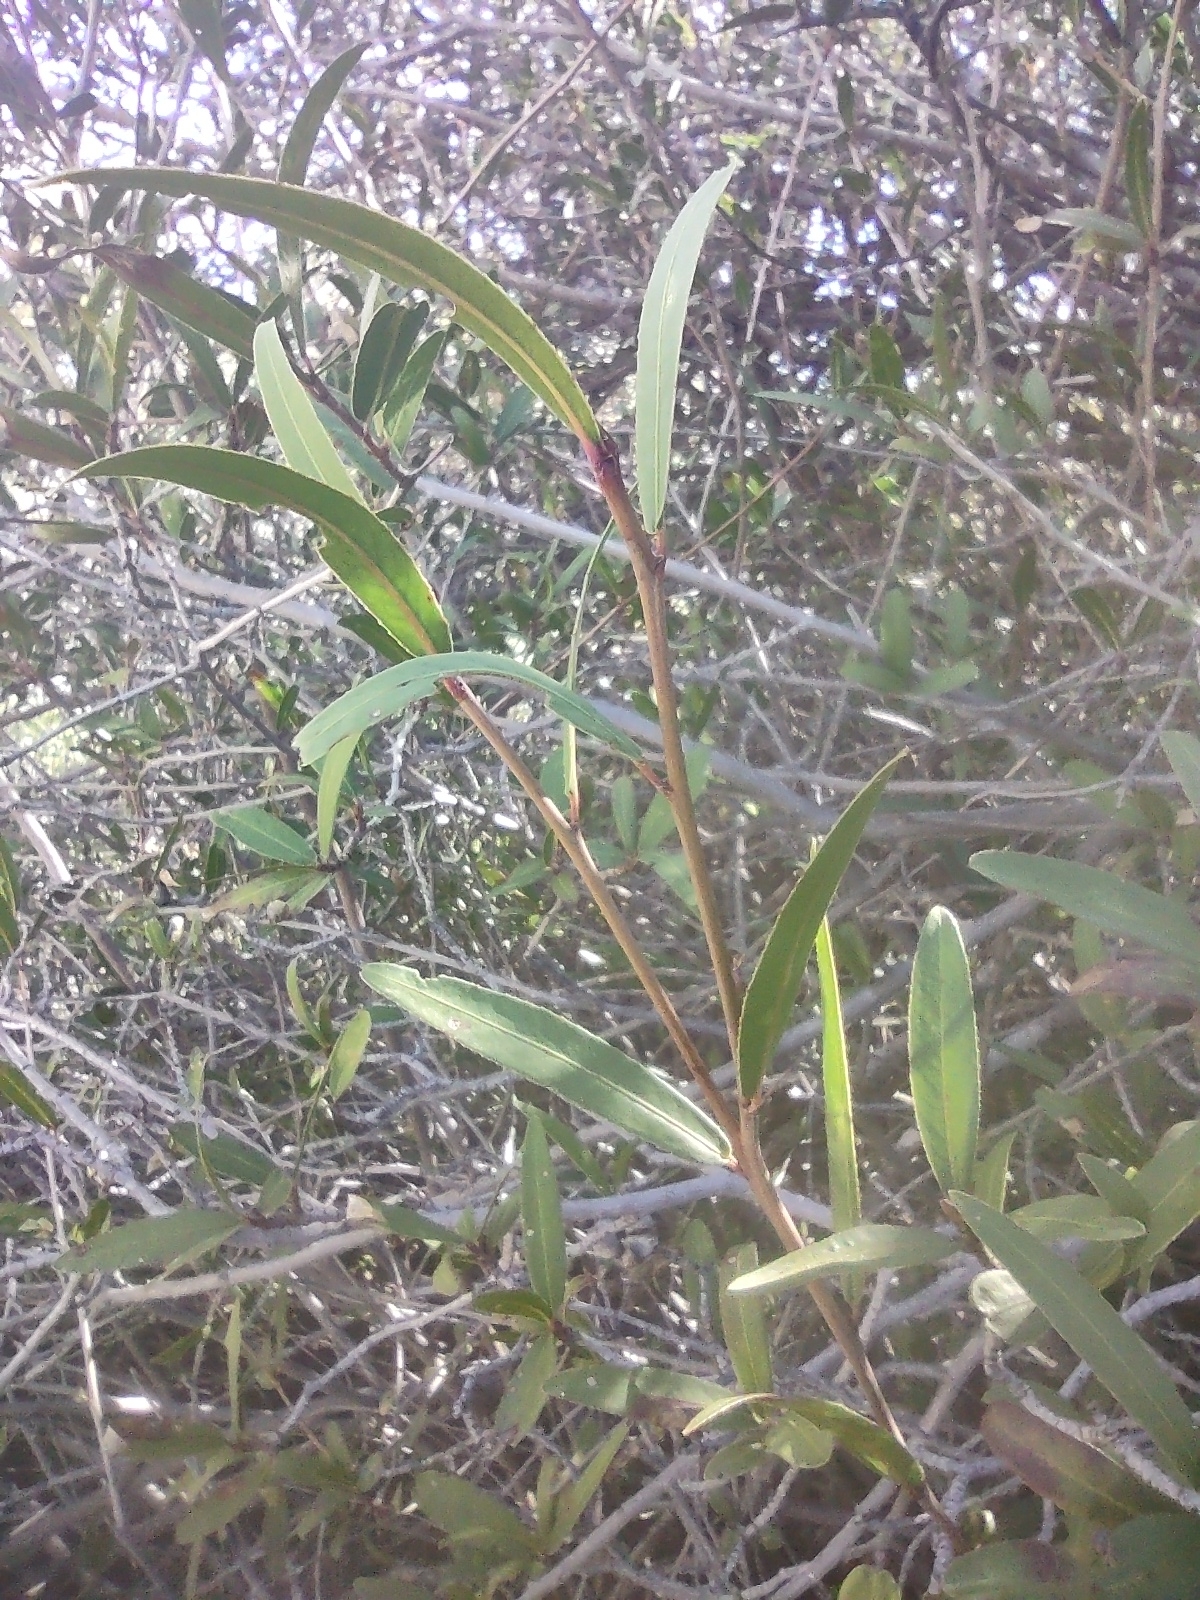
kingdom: Plantae
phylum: Tracheophyta
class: Magnoliopsida
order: Rosales
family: Rosaceae
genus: Vauquelinia
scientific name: Vauquelinia californica
